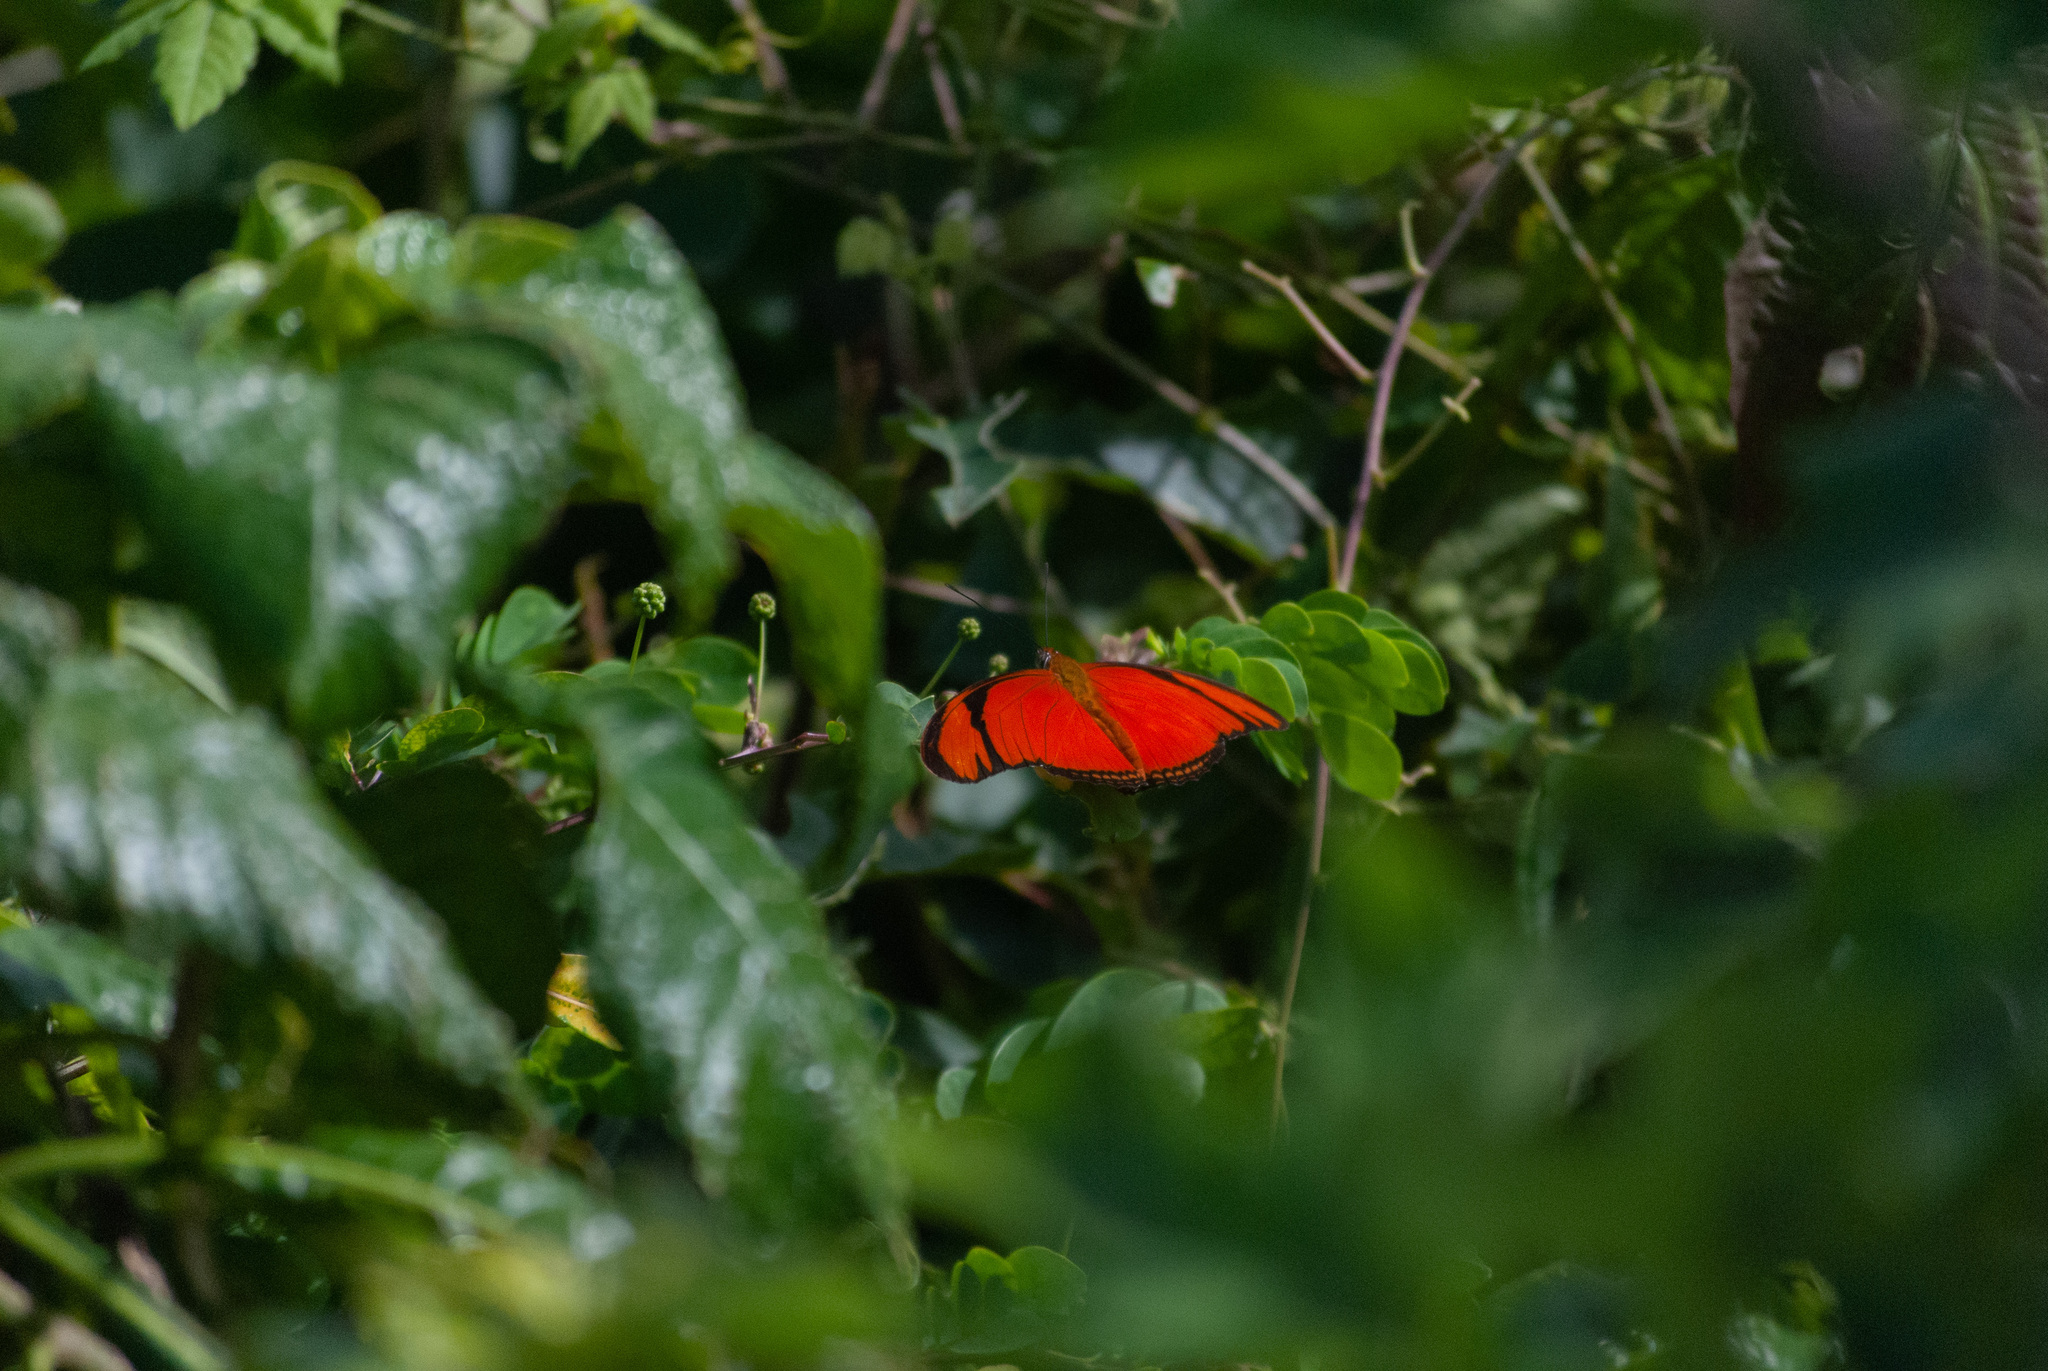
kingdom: Animalia
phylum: Arthropoda
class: Insecta
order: Lepidoptera
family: Nymphalidae
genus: Dryas
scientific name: Dryas iulia
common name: Flambeau
